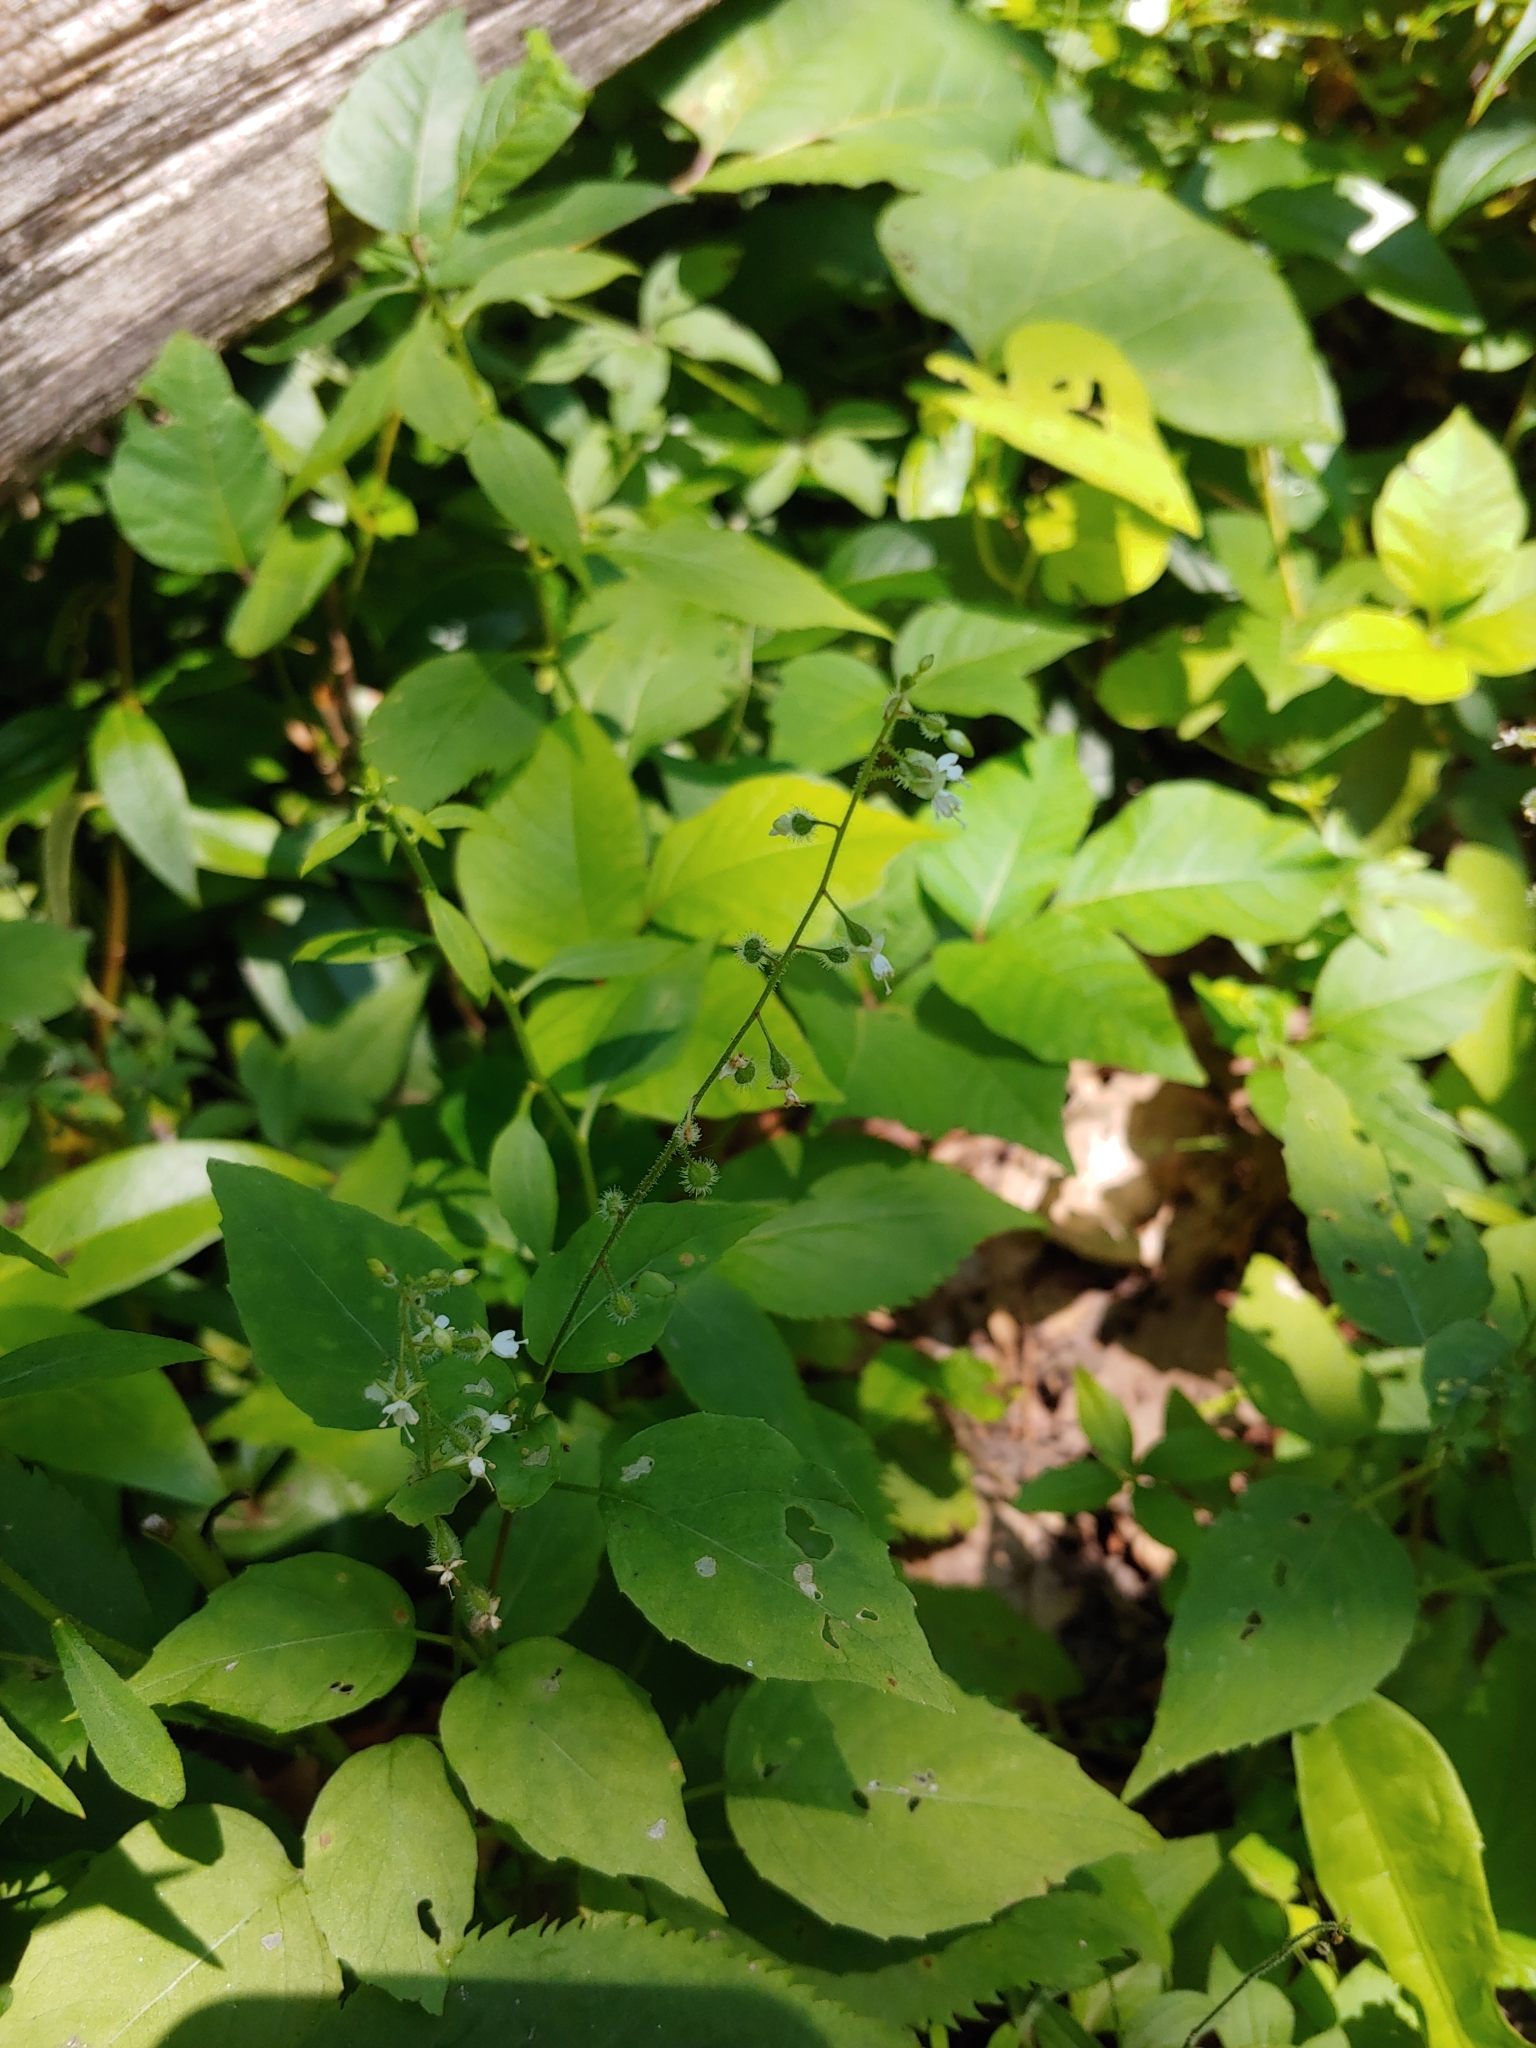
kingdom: Plantae
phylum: Tracheophyta
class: Magnoliopsida
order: Myrtales
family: Onagraceae
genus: Circaea
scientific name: Circaea canadensis
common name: Broad-leaved enchanter's nightshade
